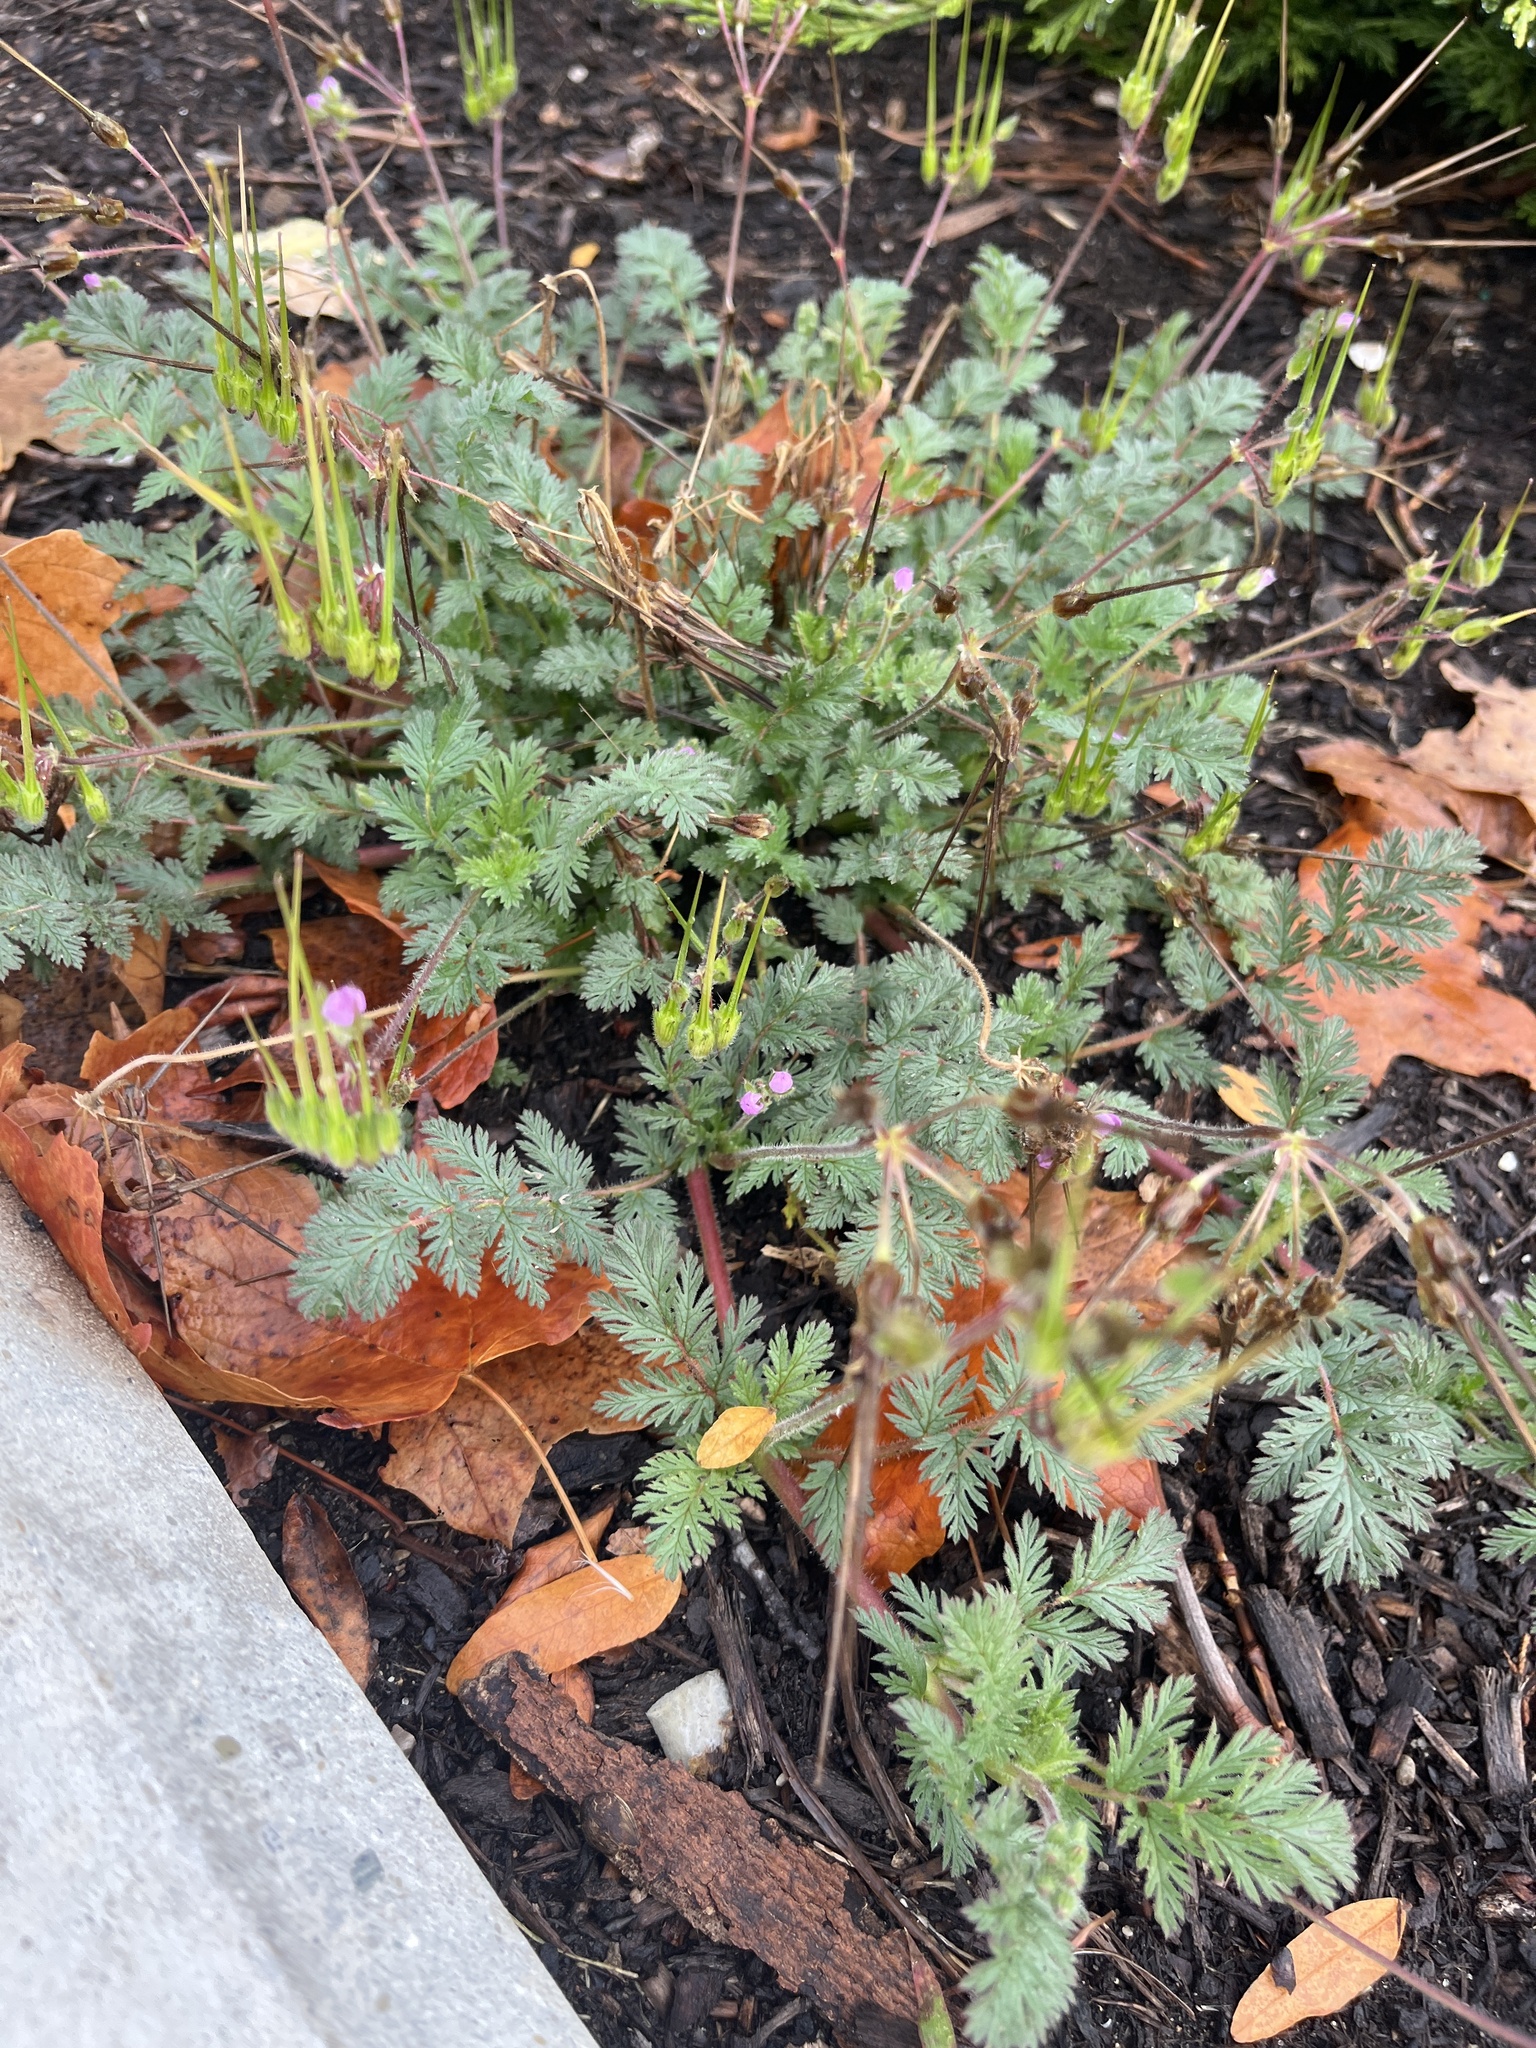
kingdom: Plantae
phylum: Tracheophyta
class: Magnoliopsida
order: Geraniales
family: Geraniaceae
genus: Erodium
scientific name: Erodium cicutarium
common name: Common stork's-bill
